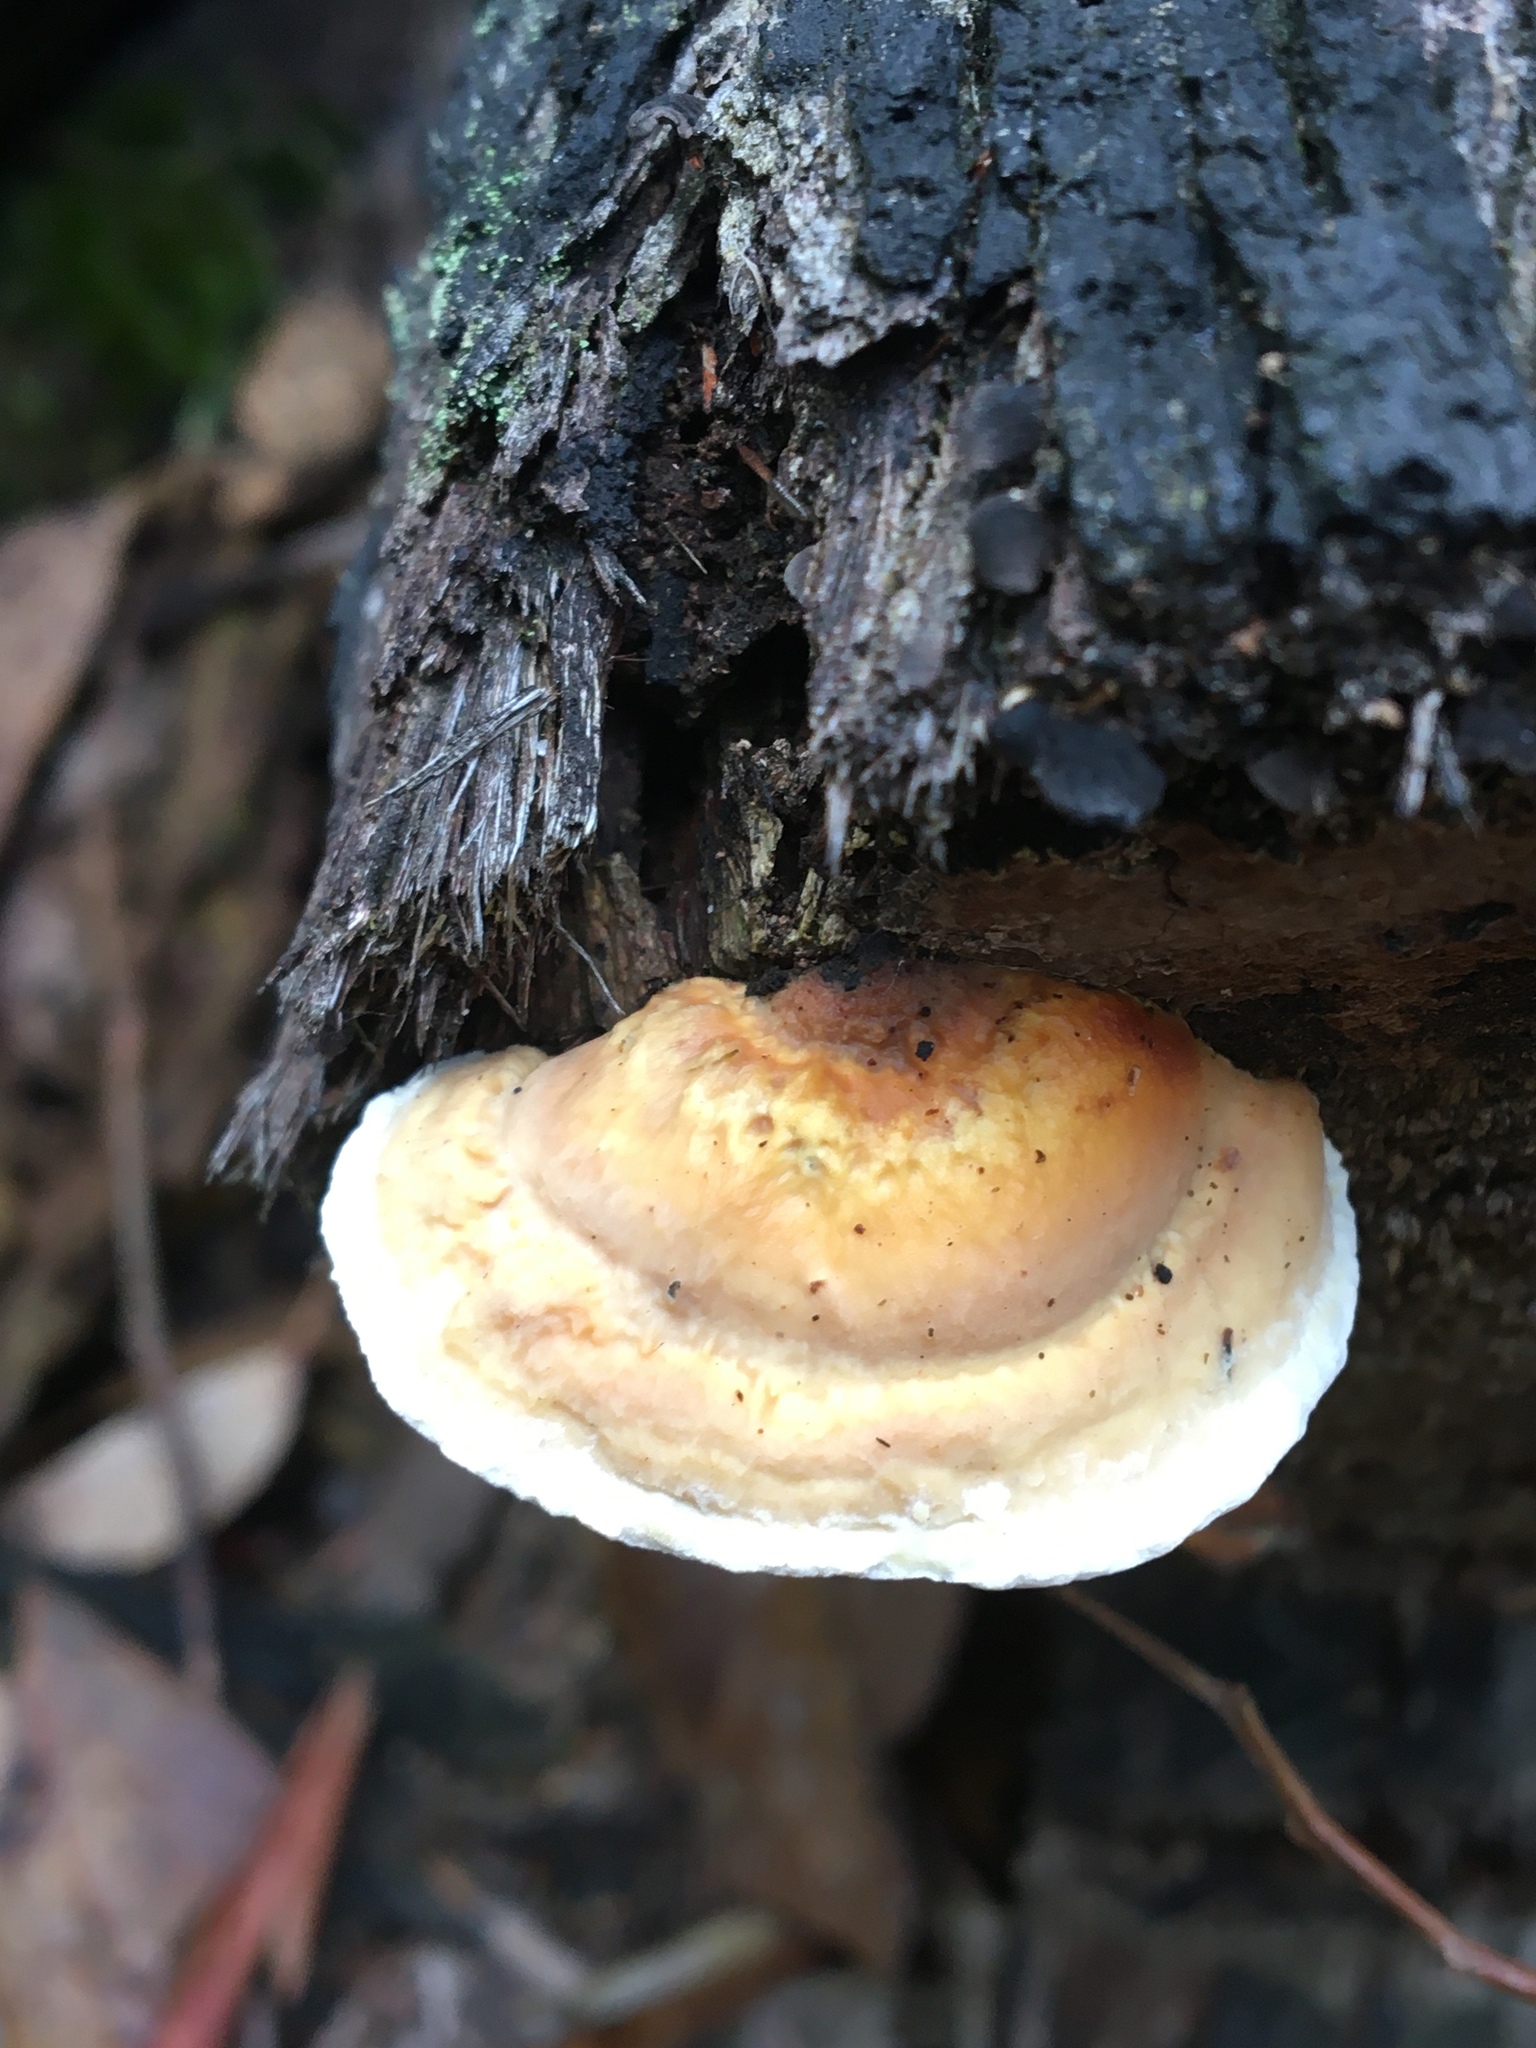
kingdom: Fungi
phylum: Basidiomycota
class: Agaricomycetes
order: Polyporales
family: Polyporaceae
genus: Truncospora
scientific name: Truncospora ochroleuca
